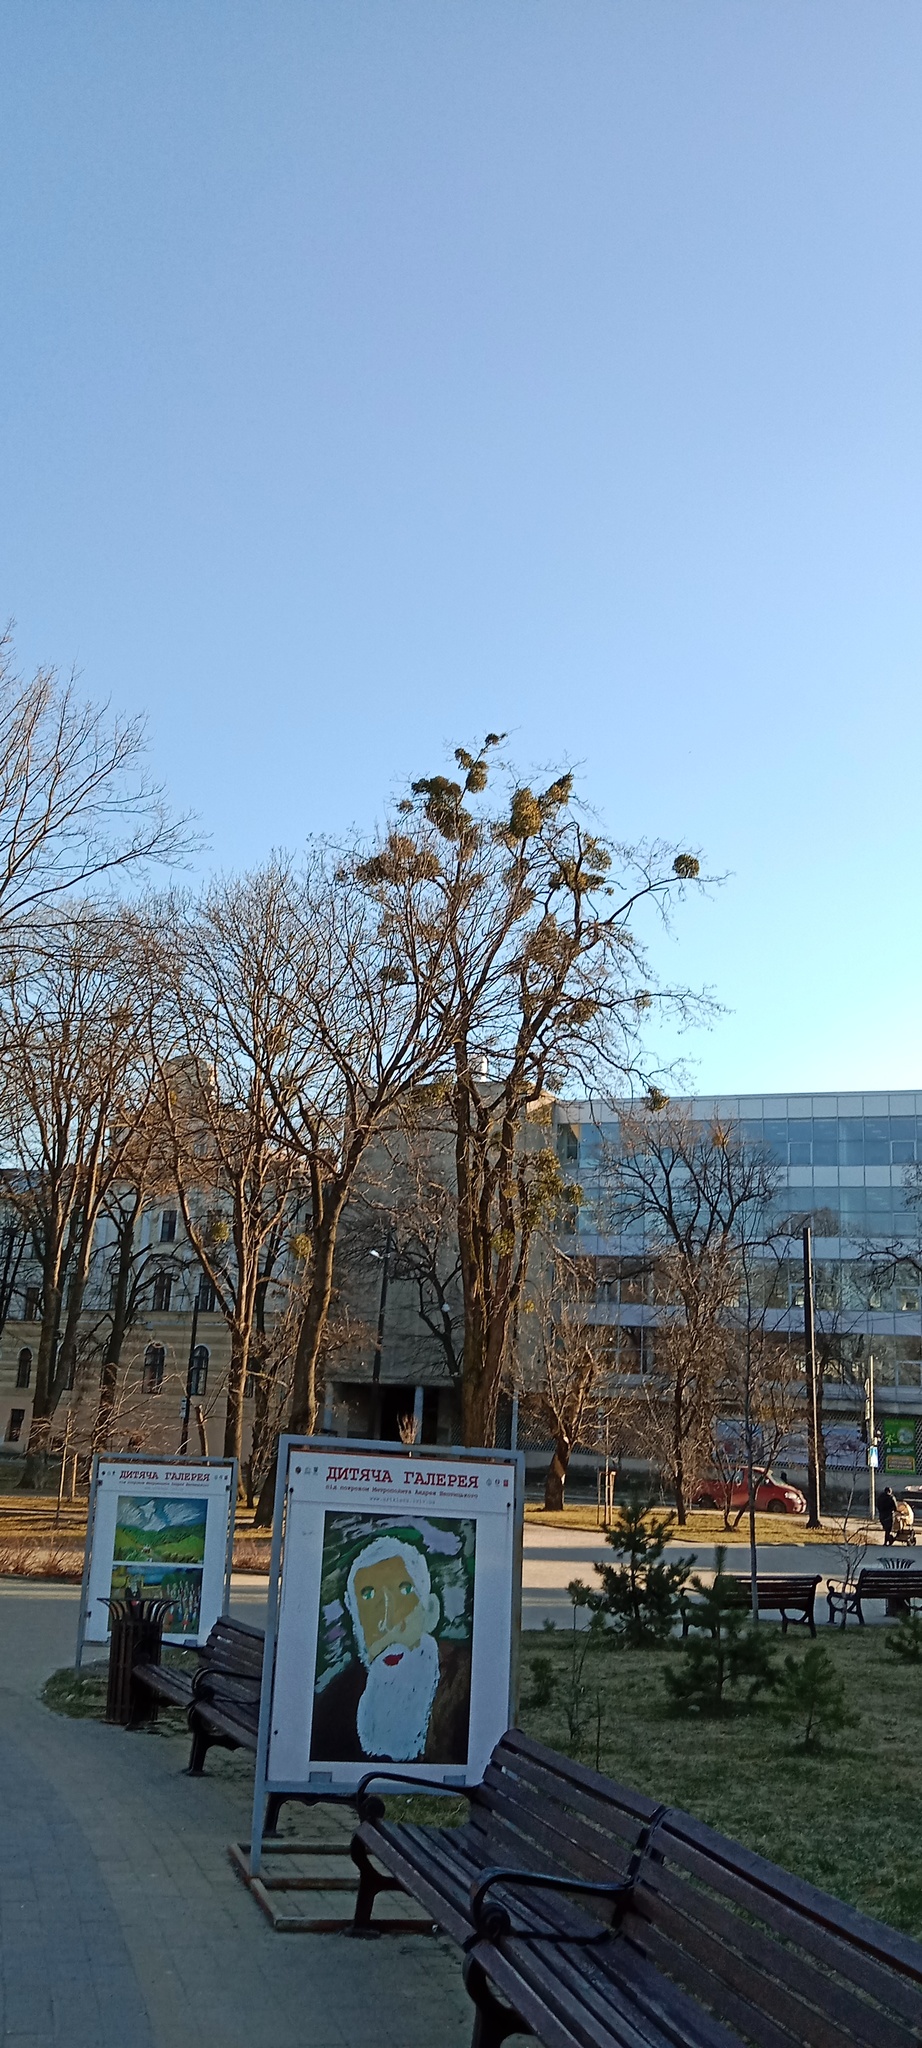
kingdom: Plantae
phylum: Tracheophyta
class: Magnoliopsida
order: Santalales
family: Viscaceae
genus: Viscum
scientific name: Viscum album
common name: Mistletoe
